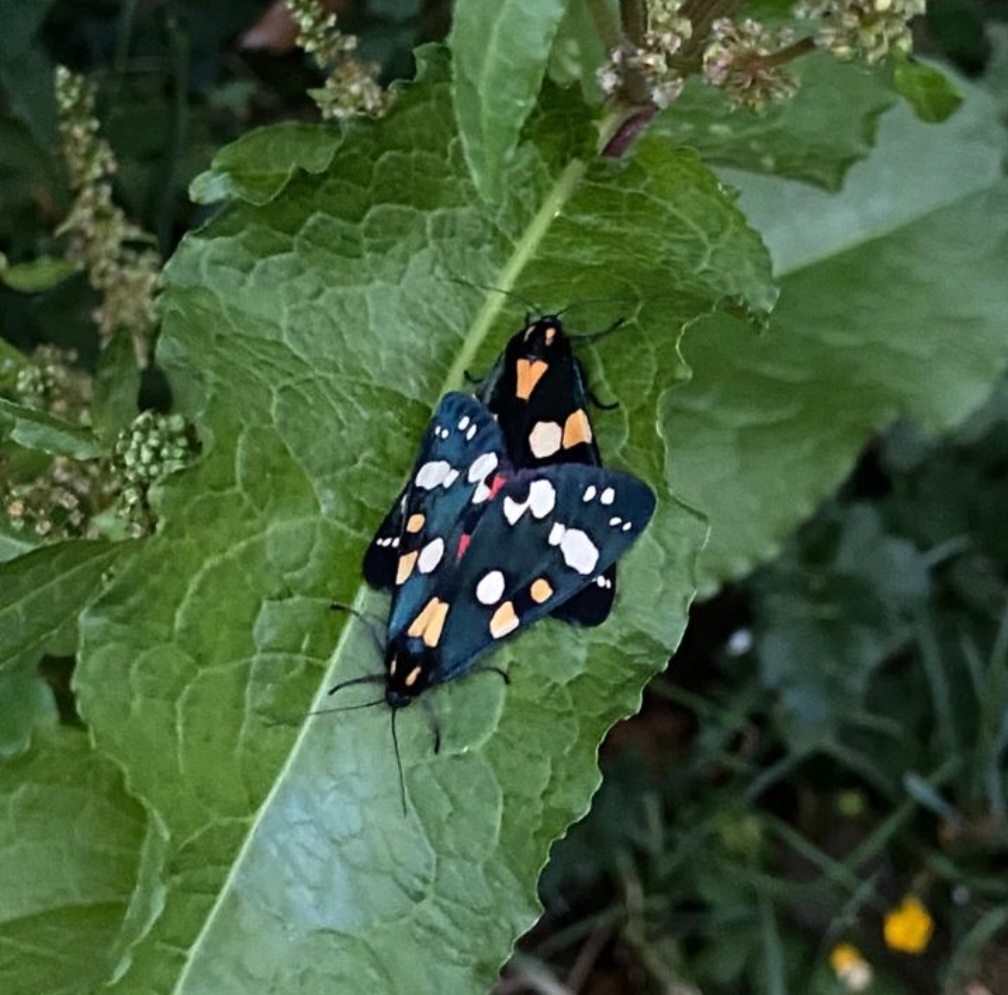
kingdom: Animalia
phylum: Arthropoda
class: Insecta
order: Lepidoptera
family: Erebidae
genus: Callimorpha
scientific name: Callimorpha dominula
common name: Scarlet tiger
